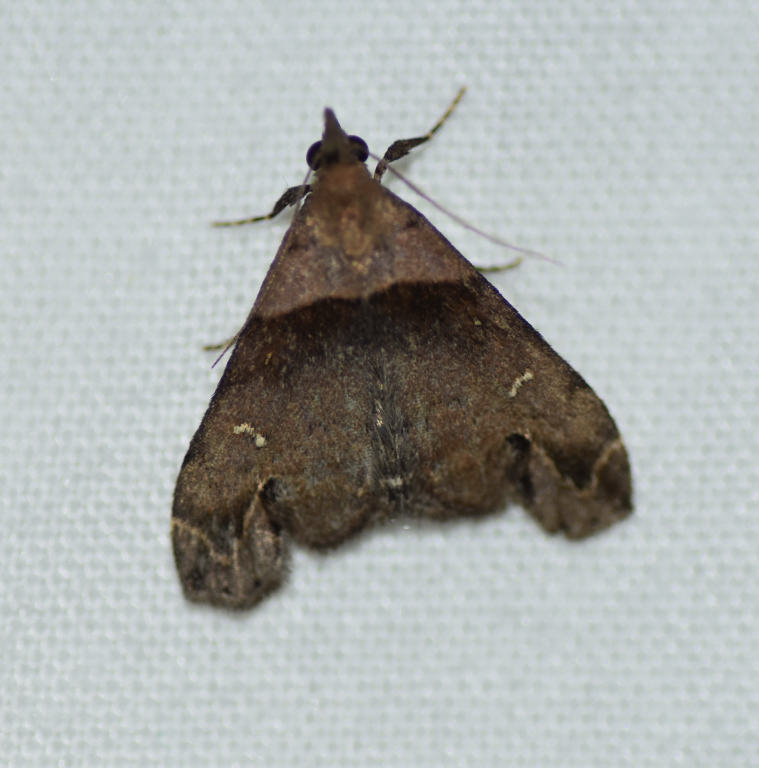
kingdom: Animalia
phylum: Arthropoda
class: Insecta
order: Lepidoptera
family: Erebidae
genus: Lascoria
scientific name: Lascoria ambigualis
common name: Ambiguous moth
